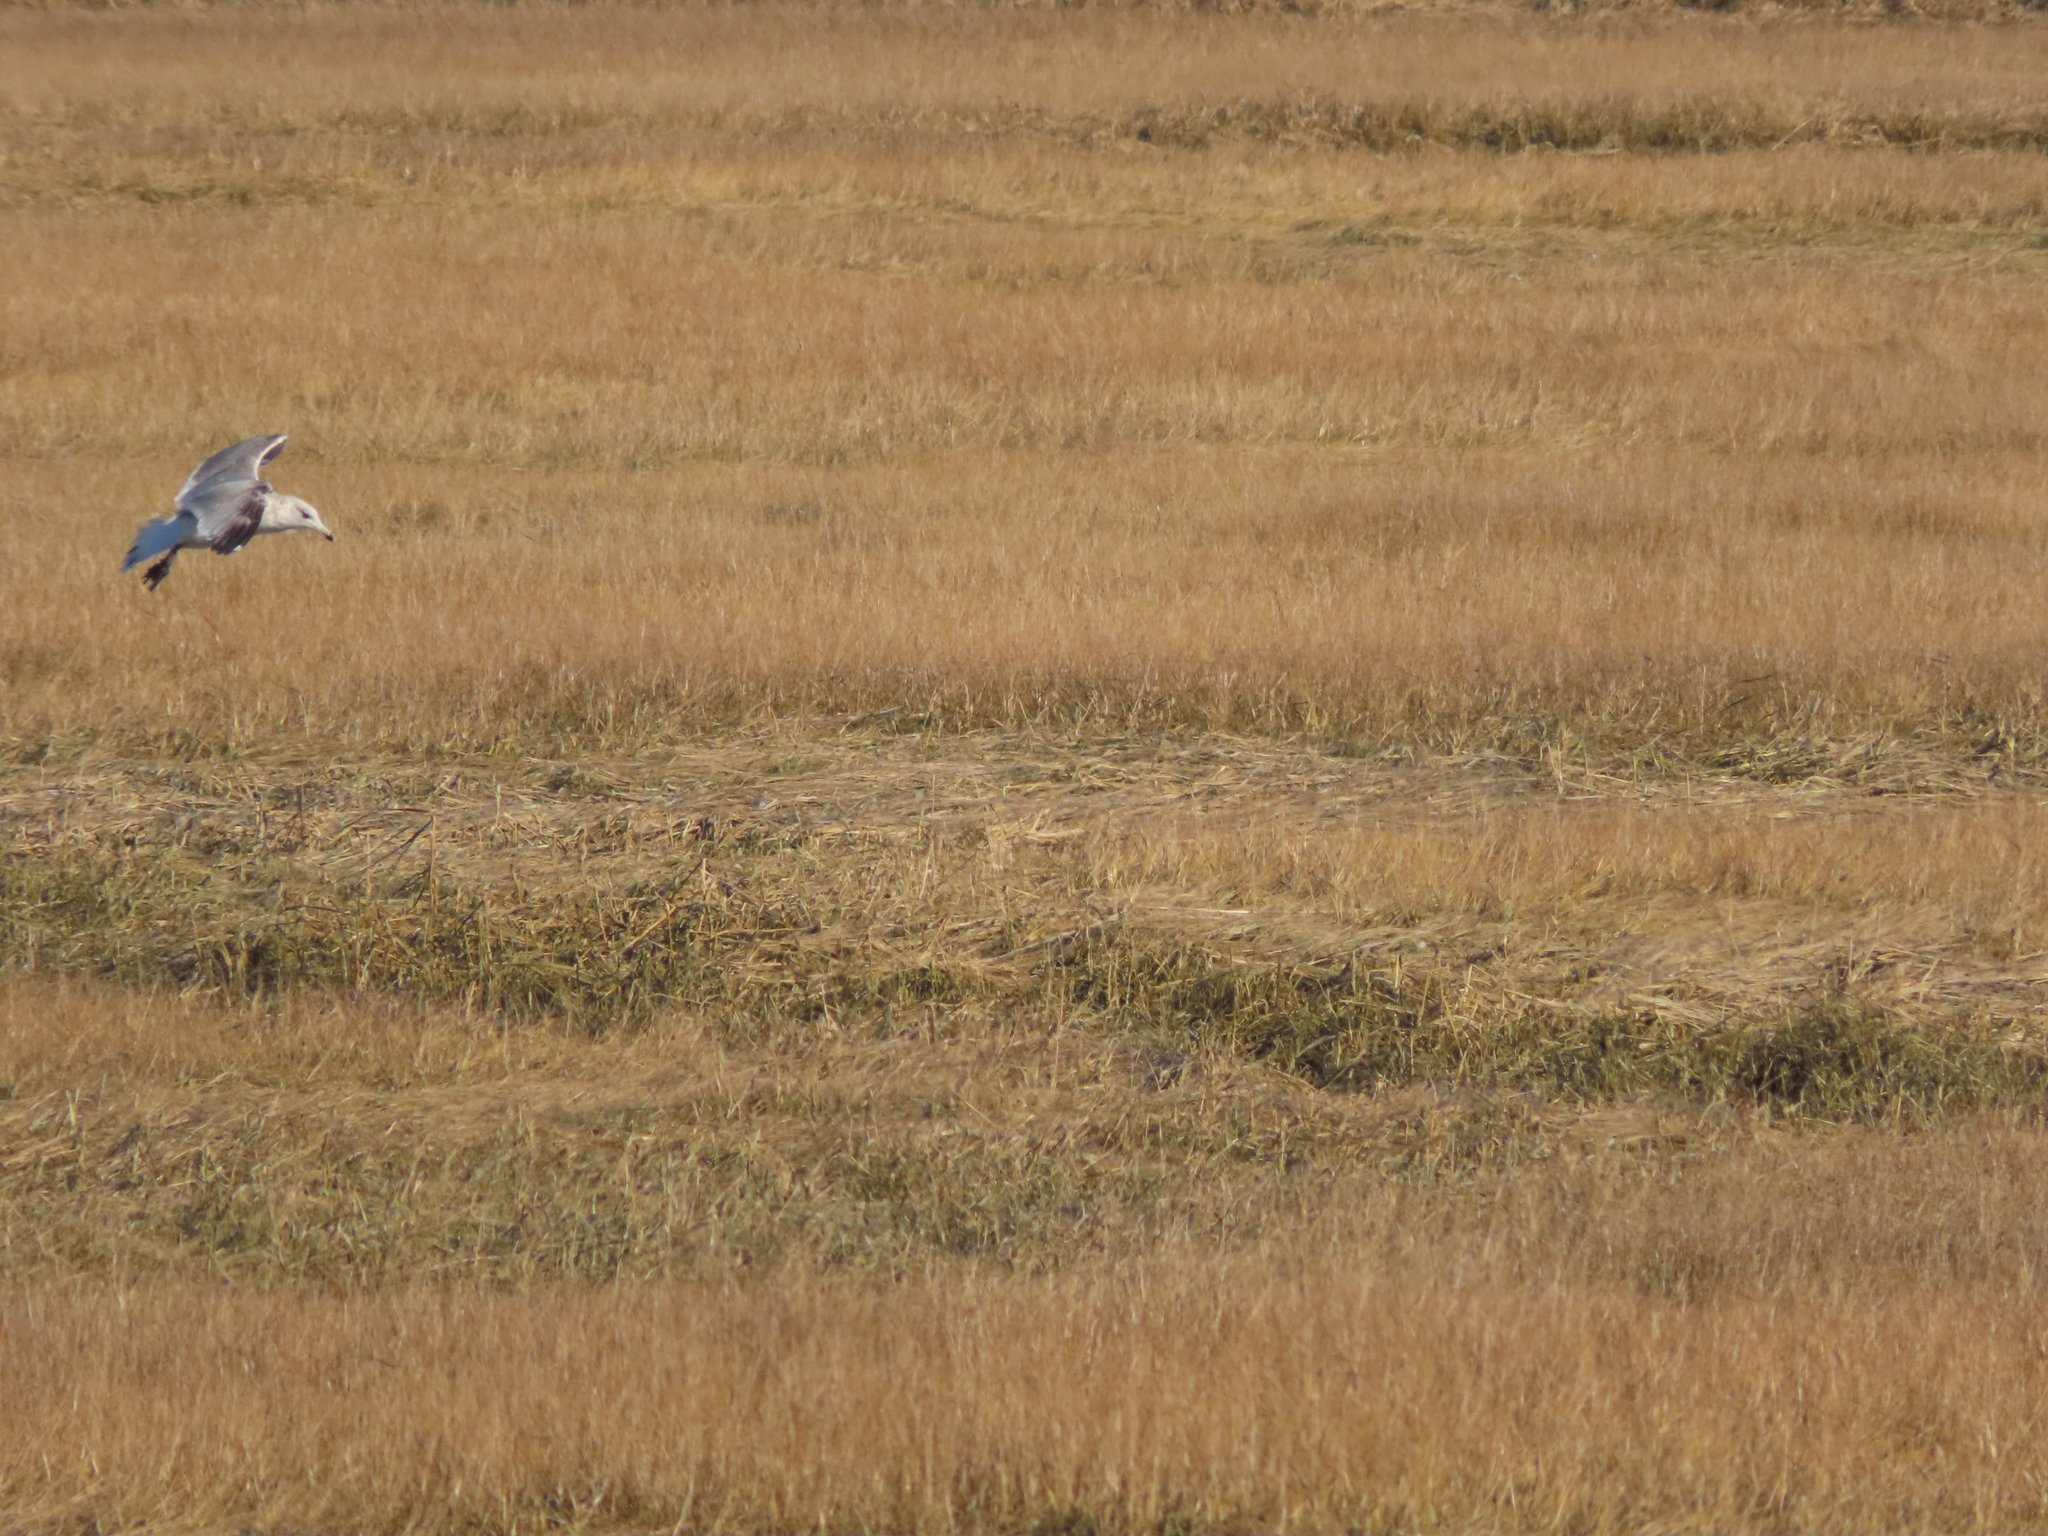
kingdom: Animalia
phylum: Chordata
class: Aves
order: Charadriiformes
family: Laridae
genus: Larus
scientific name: Larus argentatus
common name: Herring gull
